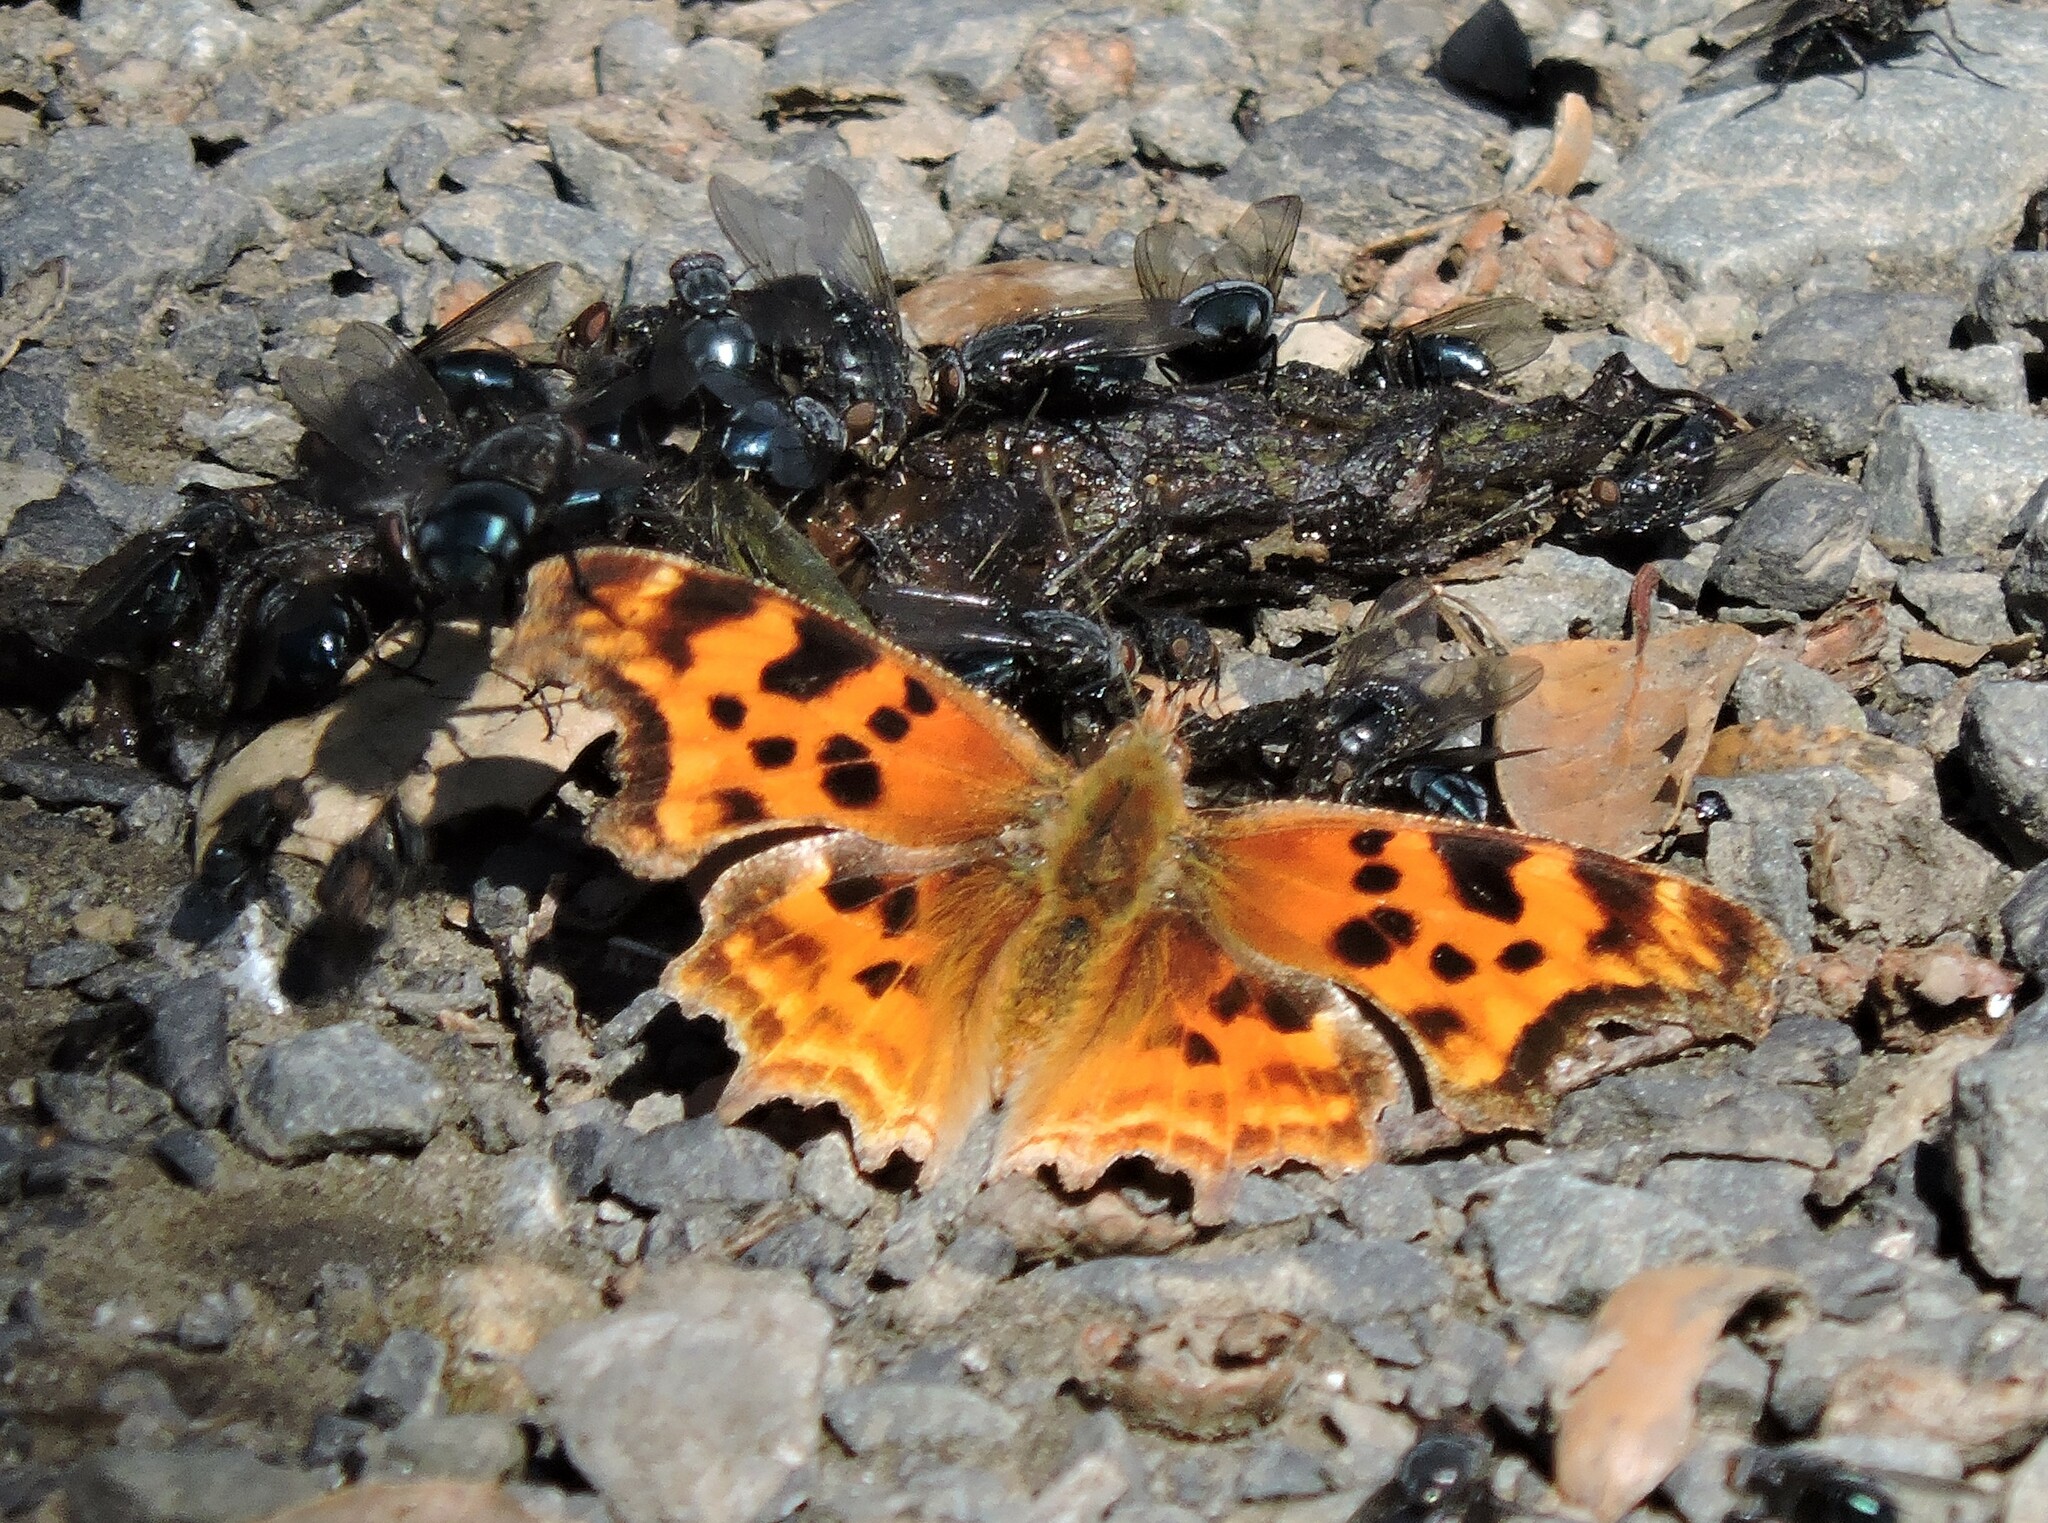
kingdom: Animalia
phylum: Arthropoda
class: Insecta
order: Lepidoptera
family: Nymphalidae
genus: Polygonia
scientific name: Polygonia satyrus
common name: Satyr angle wing
